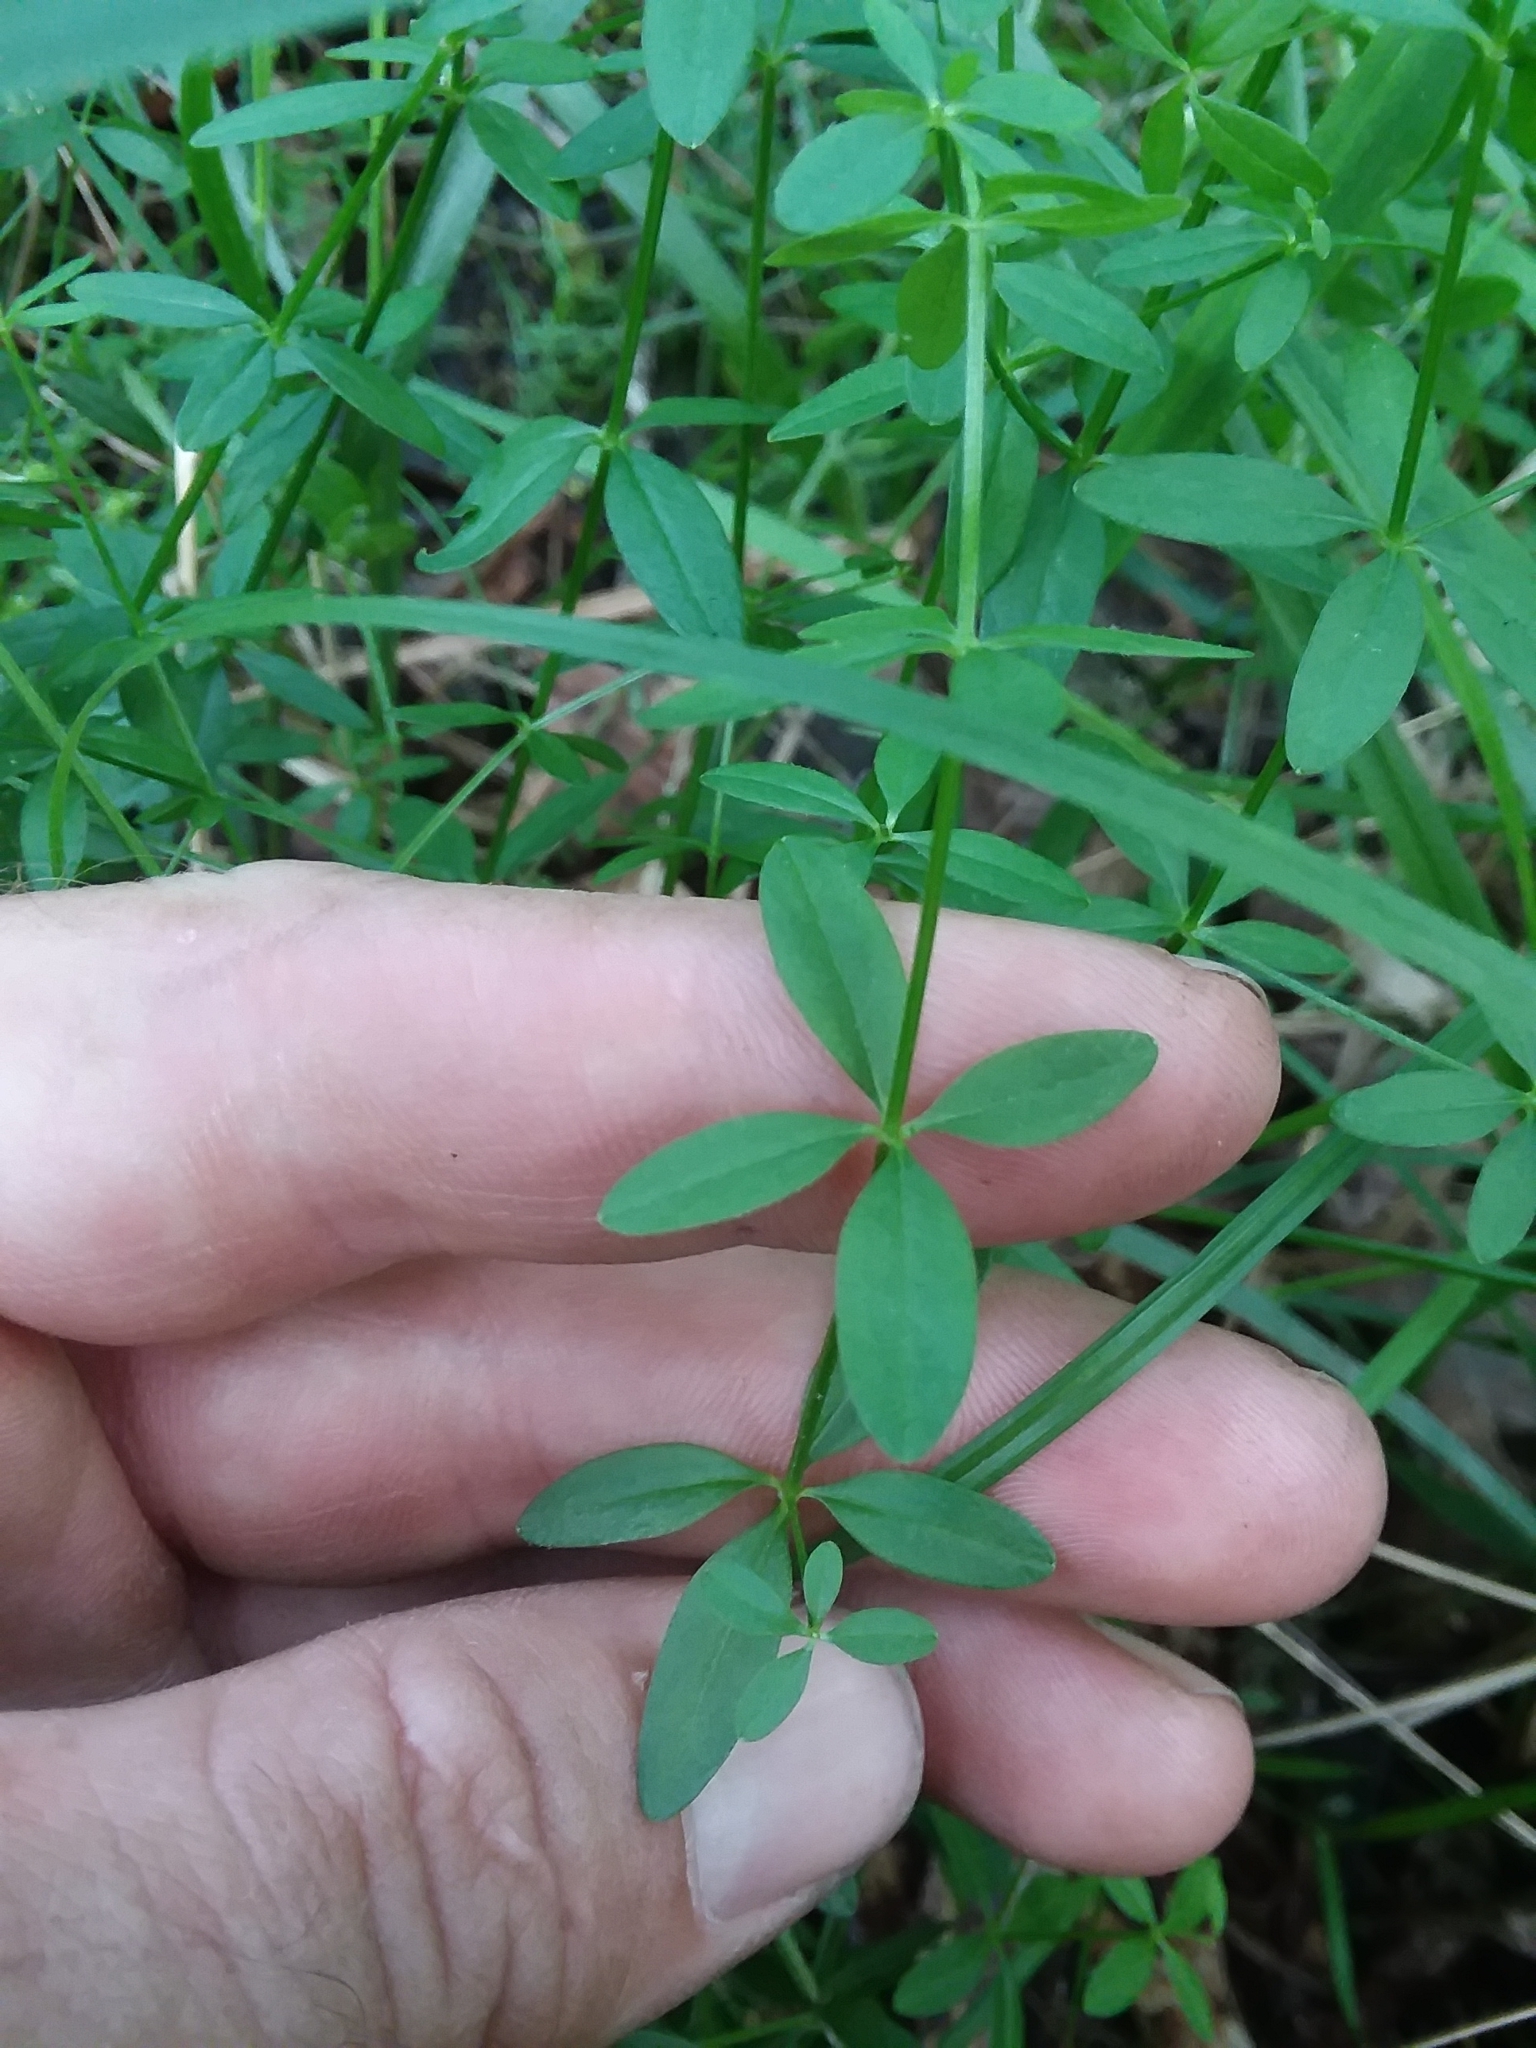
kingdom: Plantae
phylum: Tracheophyta
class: Magnoliopsida
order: Gentianales
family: Rubiaceae
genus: Galium
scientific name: Galium obtusum
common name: Blunt-leaved bedstraw
